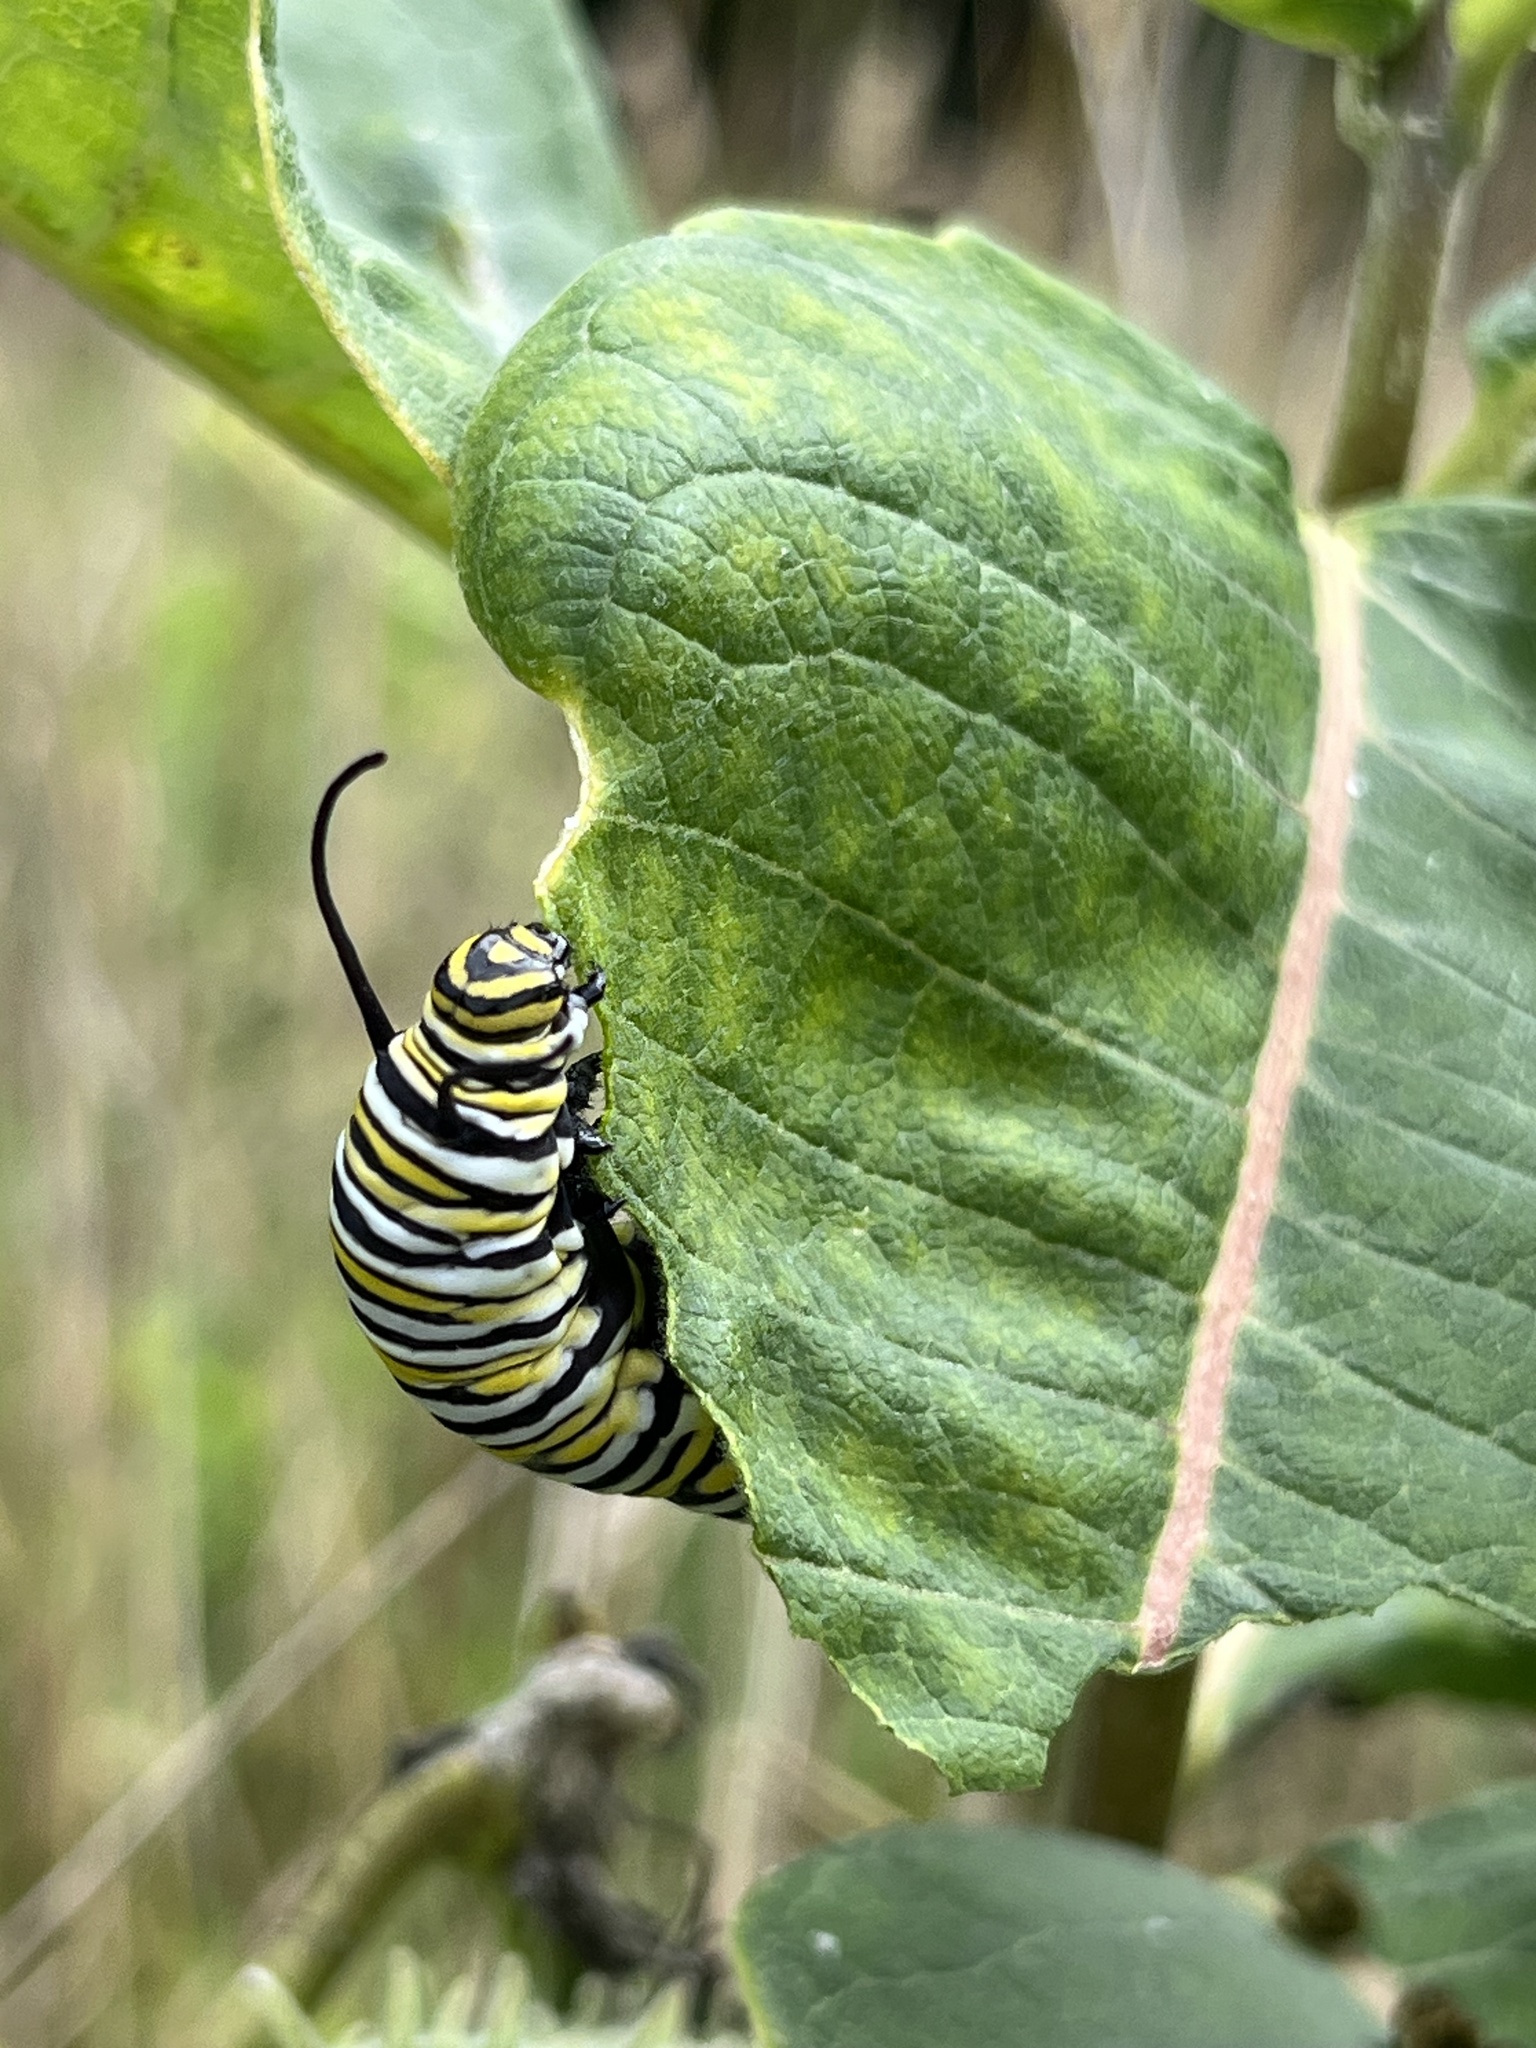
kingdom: Animalia
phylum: Arthropoda
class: Insecta
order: Lepidoptera
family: Nymphalidae
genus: Danaus
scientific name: Danaus plexippus
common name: Monarch
